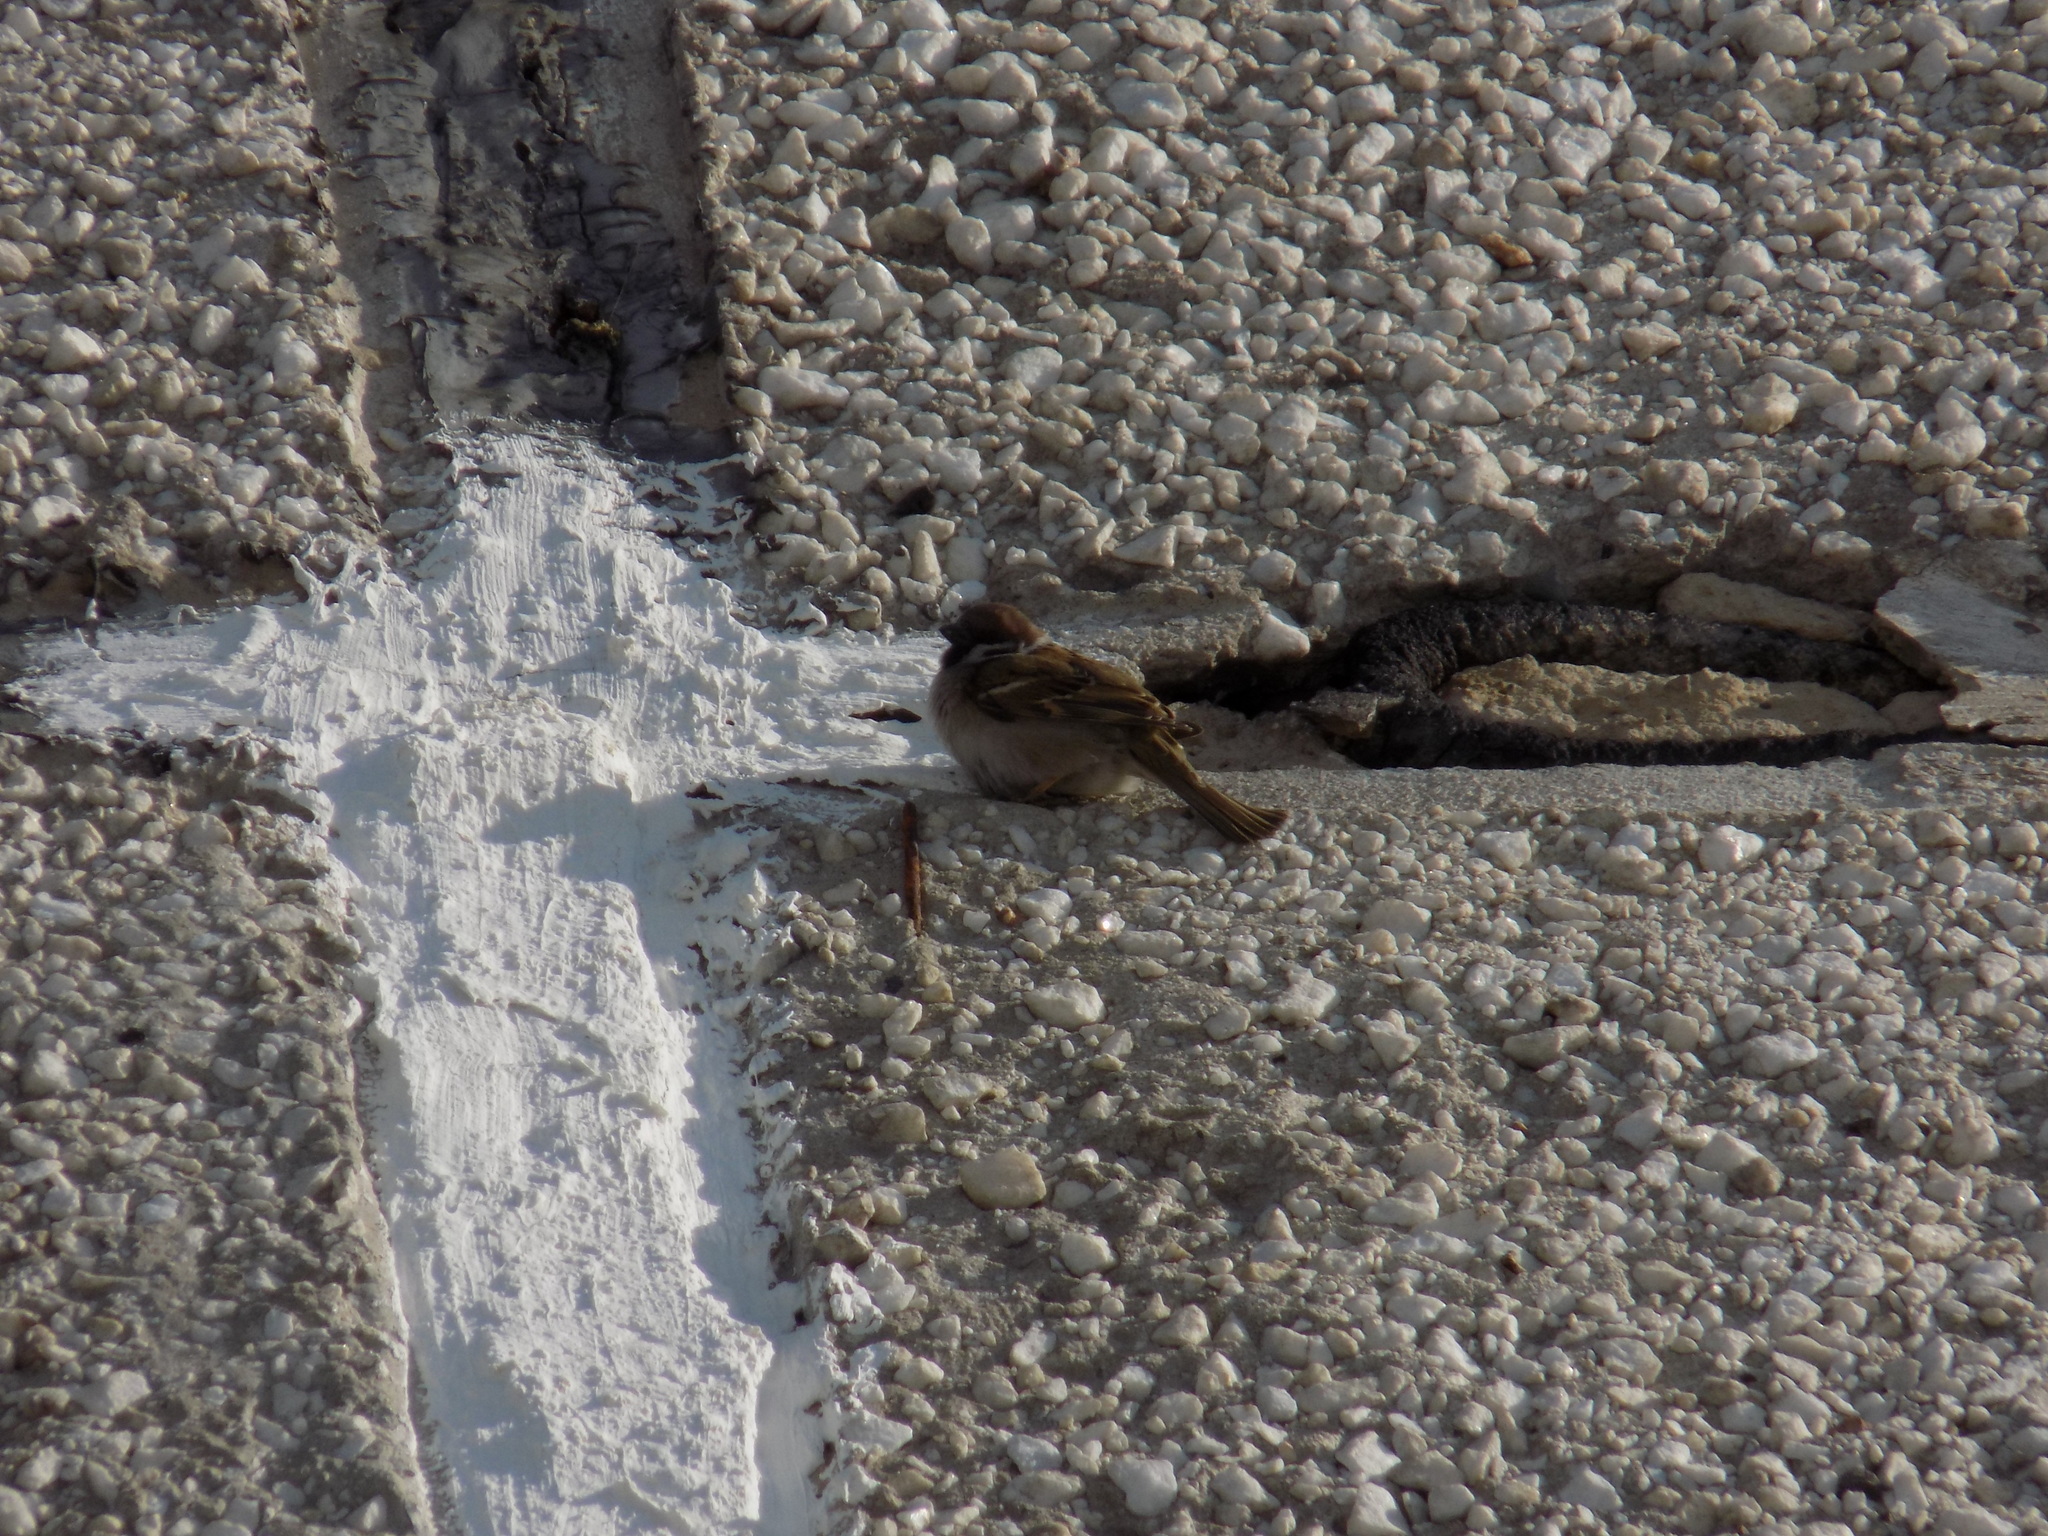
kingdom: Animalia
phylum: Chordata
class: Aves
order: Passeriformes
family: Passeridae
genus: Passer
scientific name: Passer montanus
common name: Eurasian tree sparrow
